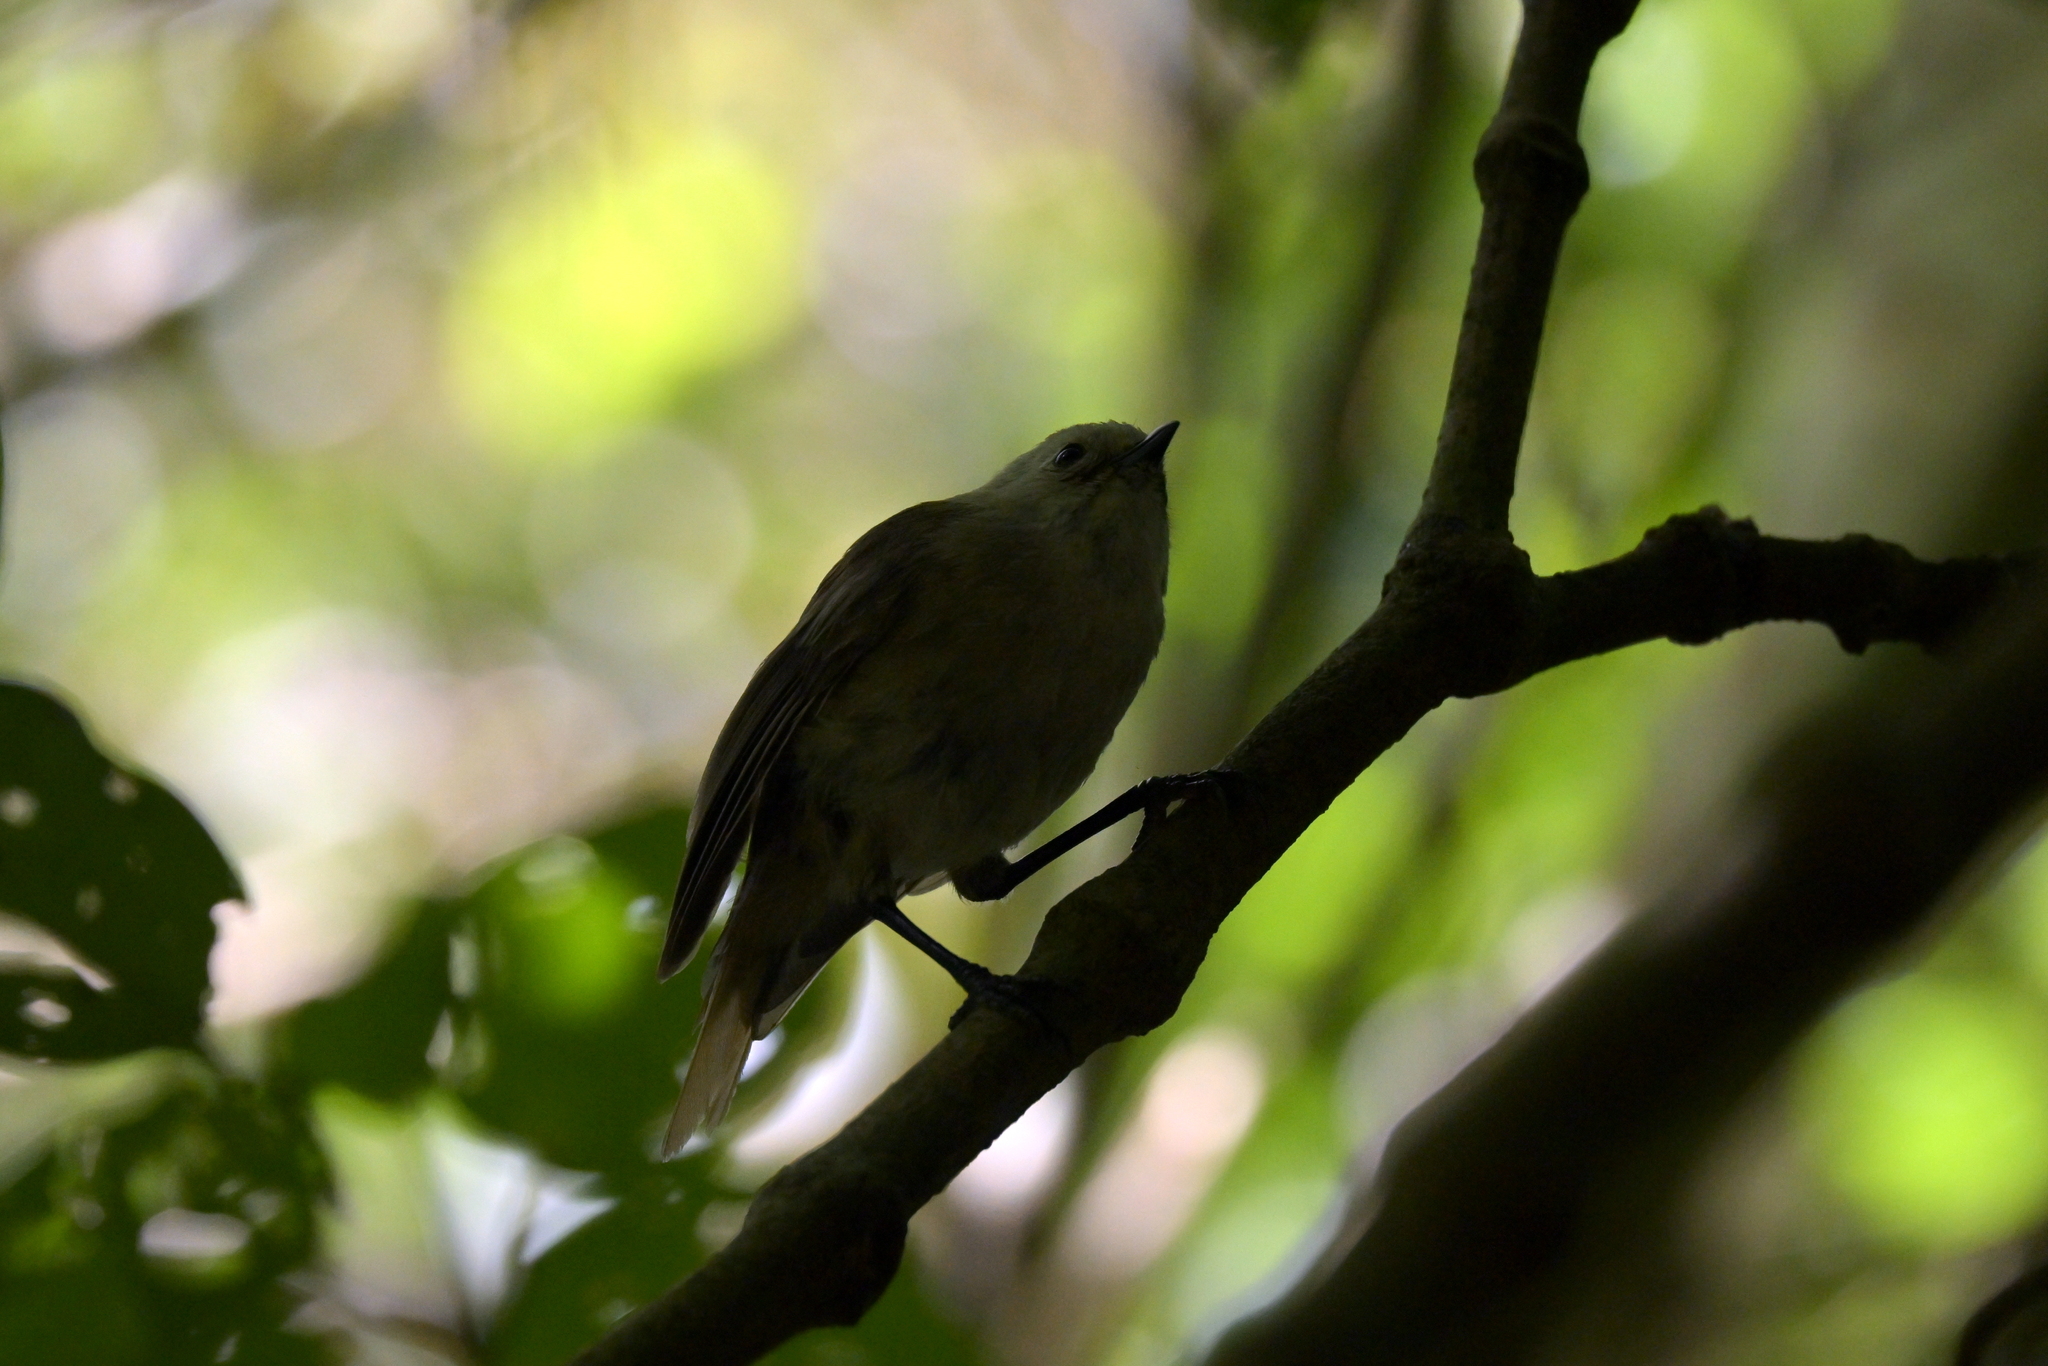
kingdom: Animalia
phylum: Chordata
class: Aves
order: Passeriformes
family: Acanthizidae
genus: Mohoua
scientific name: Mohoua albicilla
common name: Whitehead
